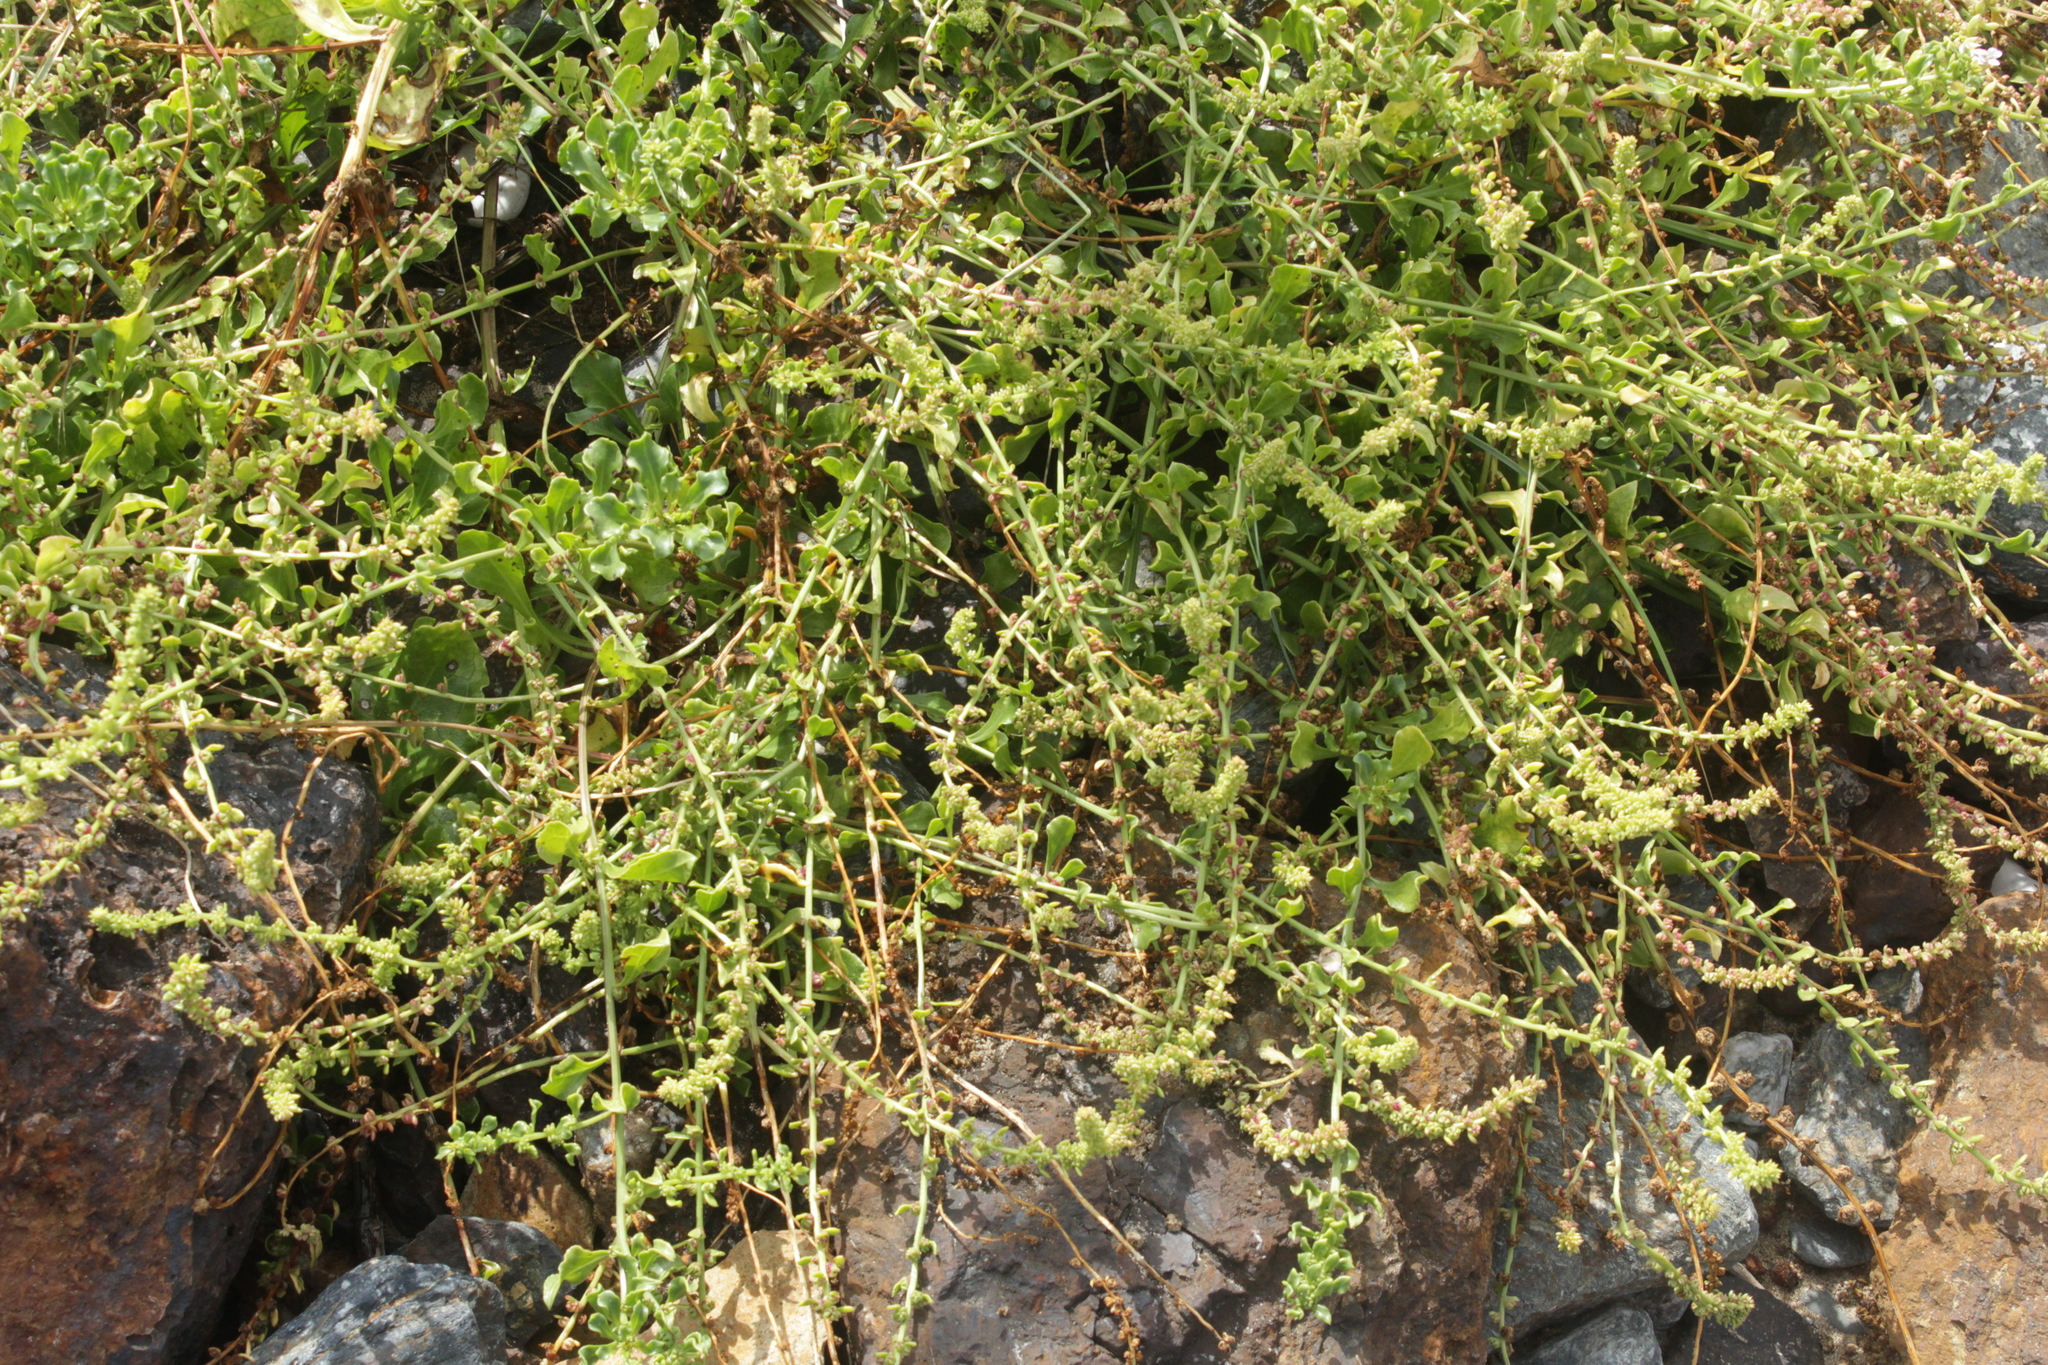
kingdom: Plantae
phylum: Tracheophyta
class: Magnoliopsida
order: Caryophyllales
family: Amaranthaceae
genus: Beta
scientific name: Beta vulgaris
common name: Beet
